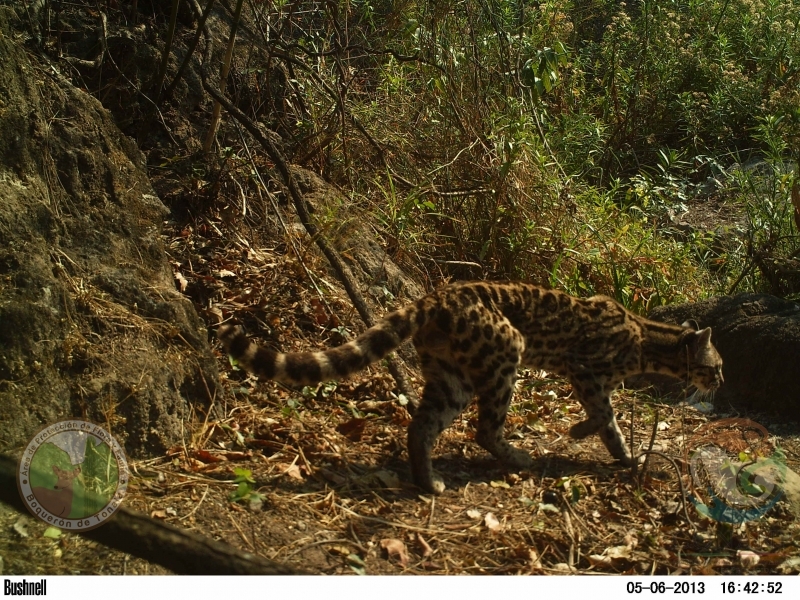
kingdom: Animalia
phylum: Chordata
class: Mammalia
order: Carnivora
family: Felidae
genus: Leopardus
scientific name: Leopardus wiedii
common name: Margay
